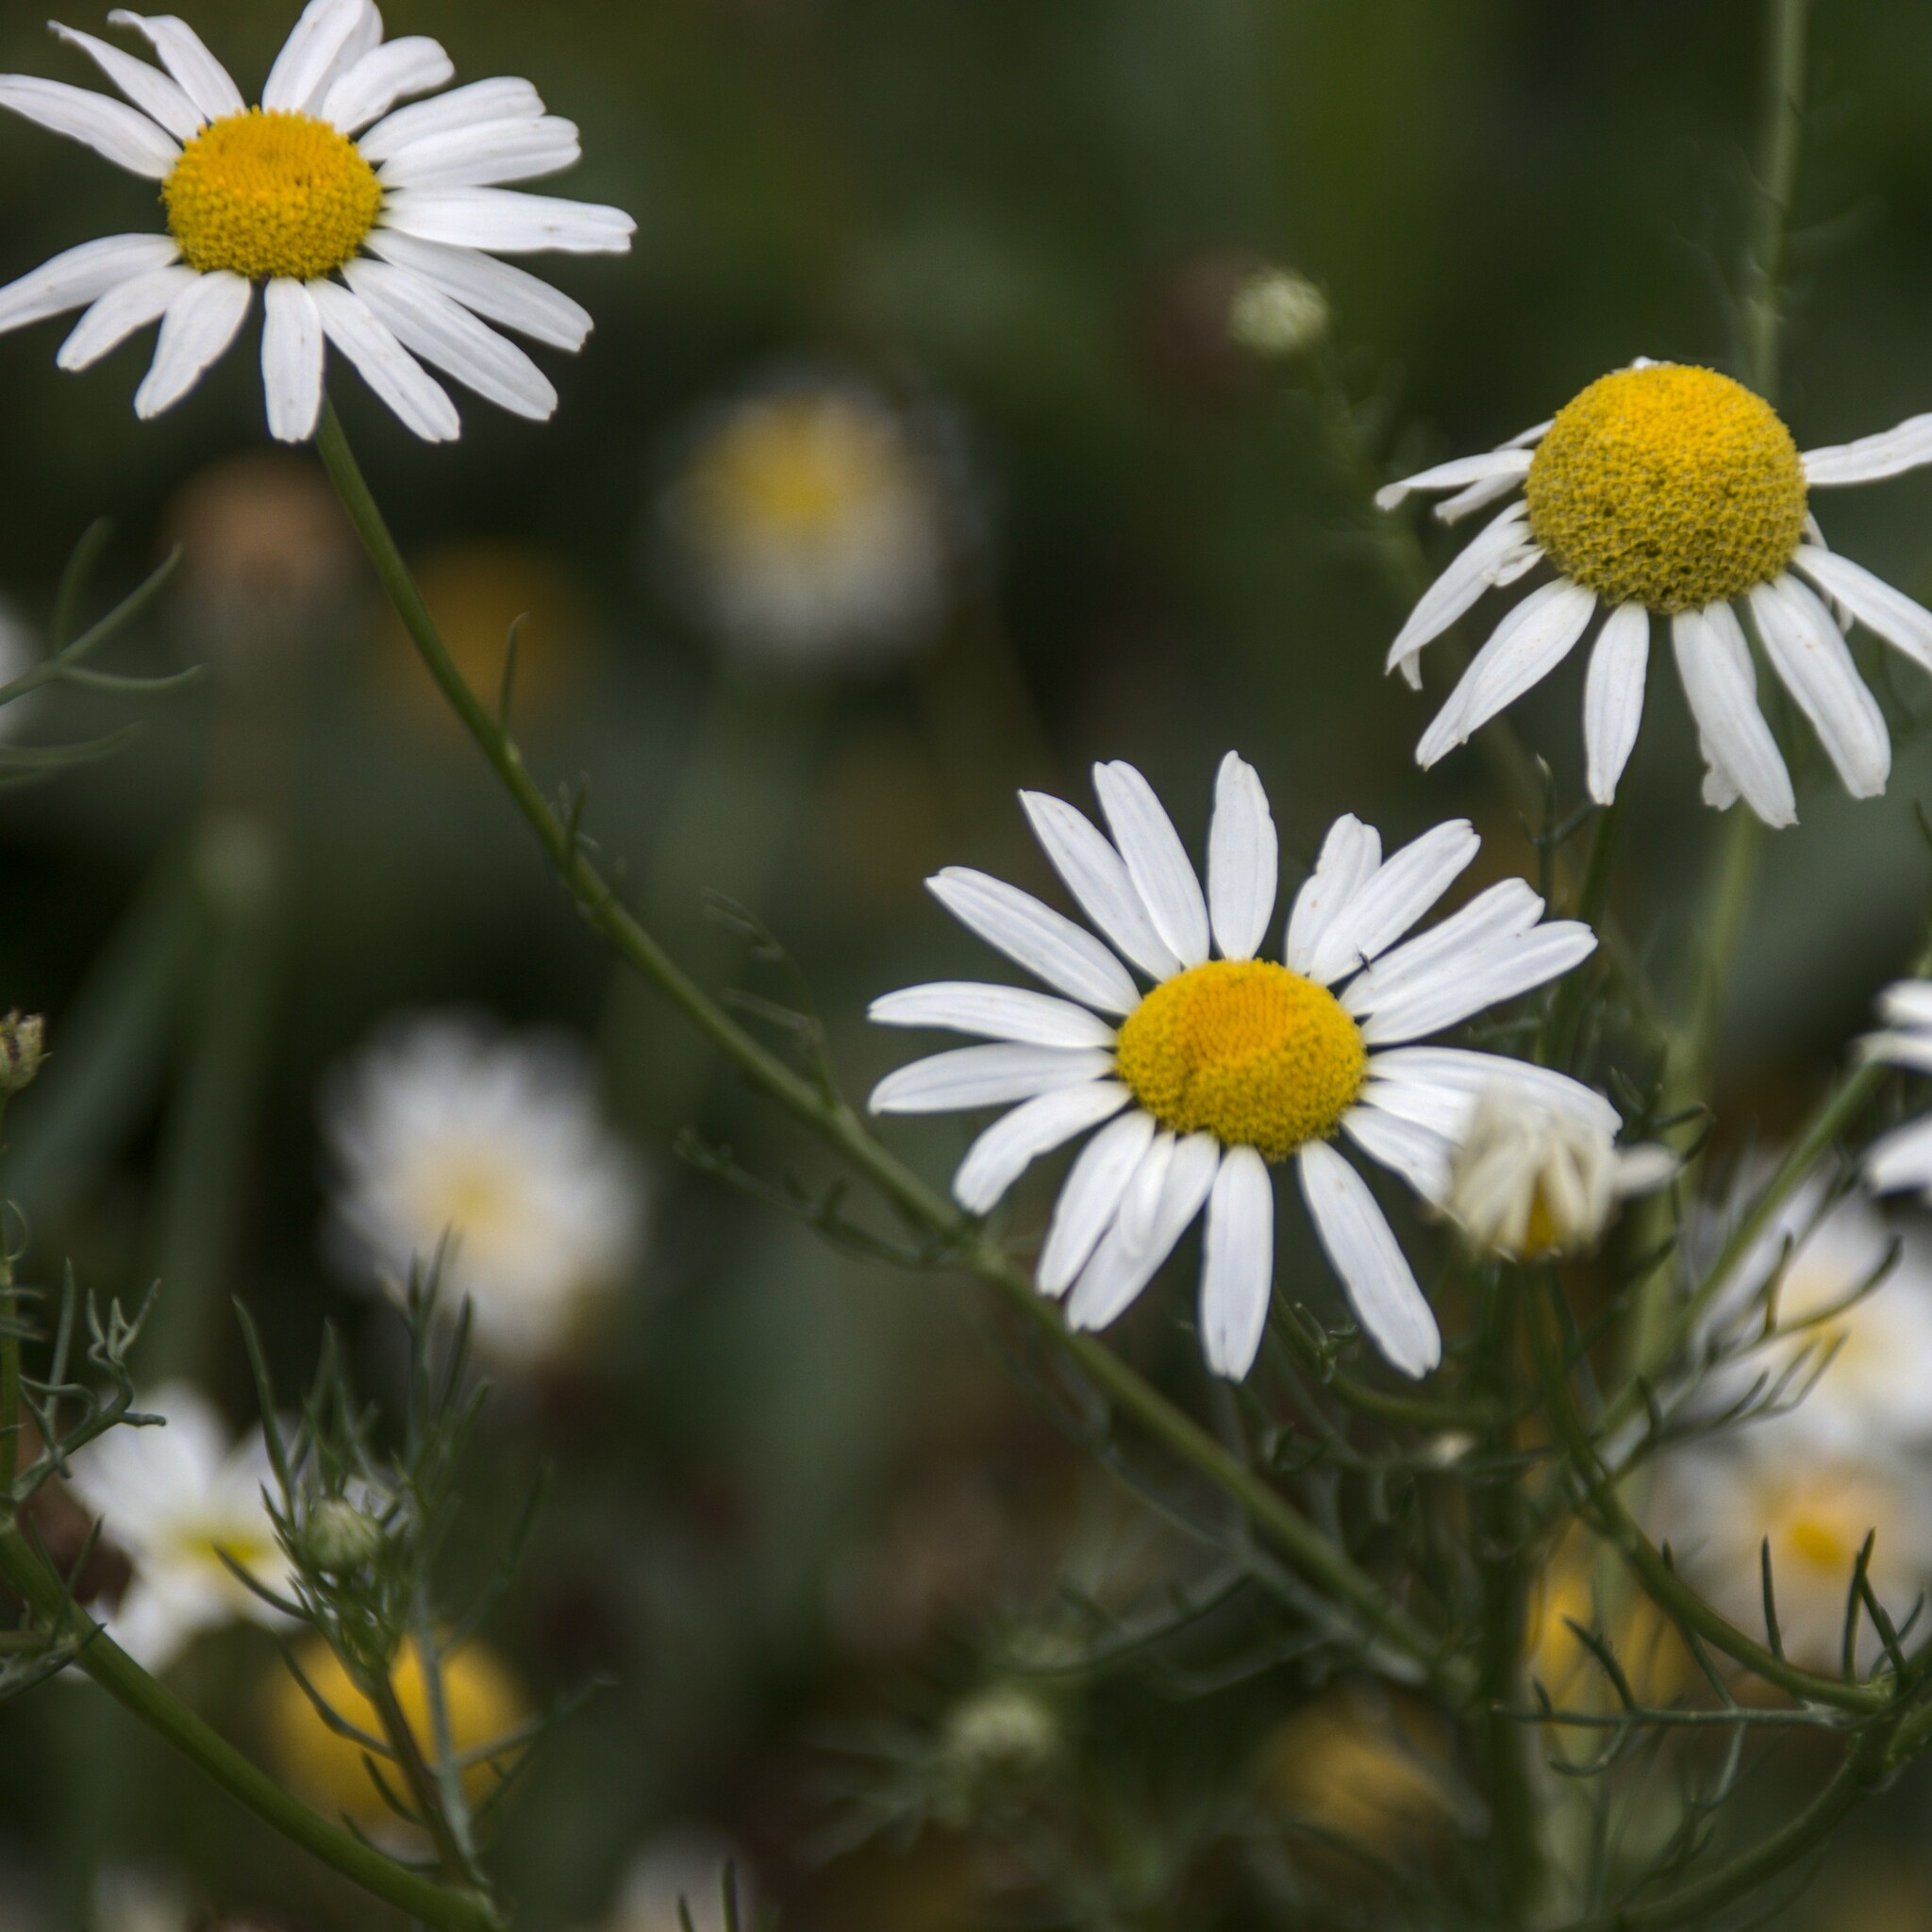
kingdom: Plantae
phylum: Tracheophyta
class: Magnoliopsida
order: Asterales
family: Asteraceae
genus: Tripleurospermum
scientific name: Tripleurospermum inodorum
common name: Scentless mayweed
